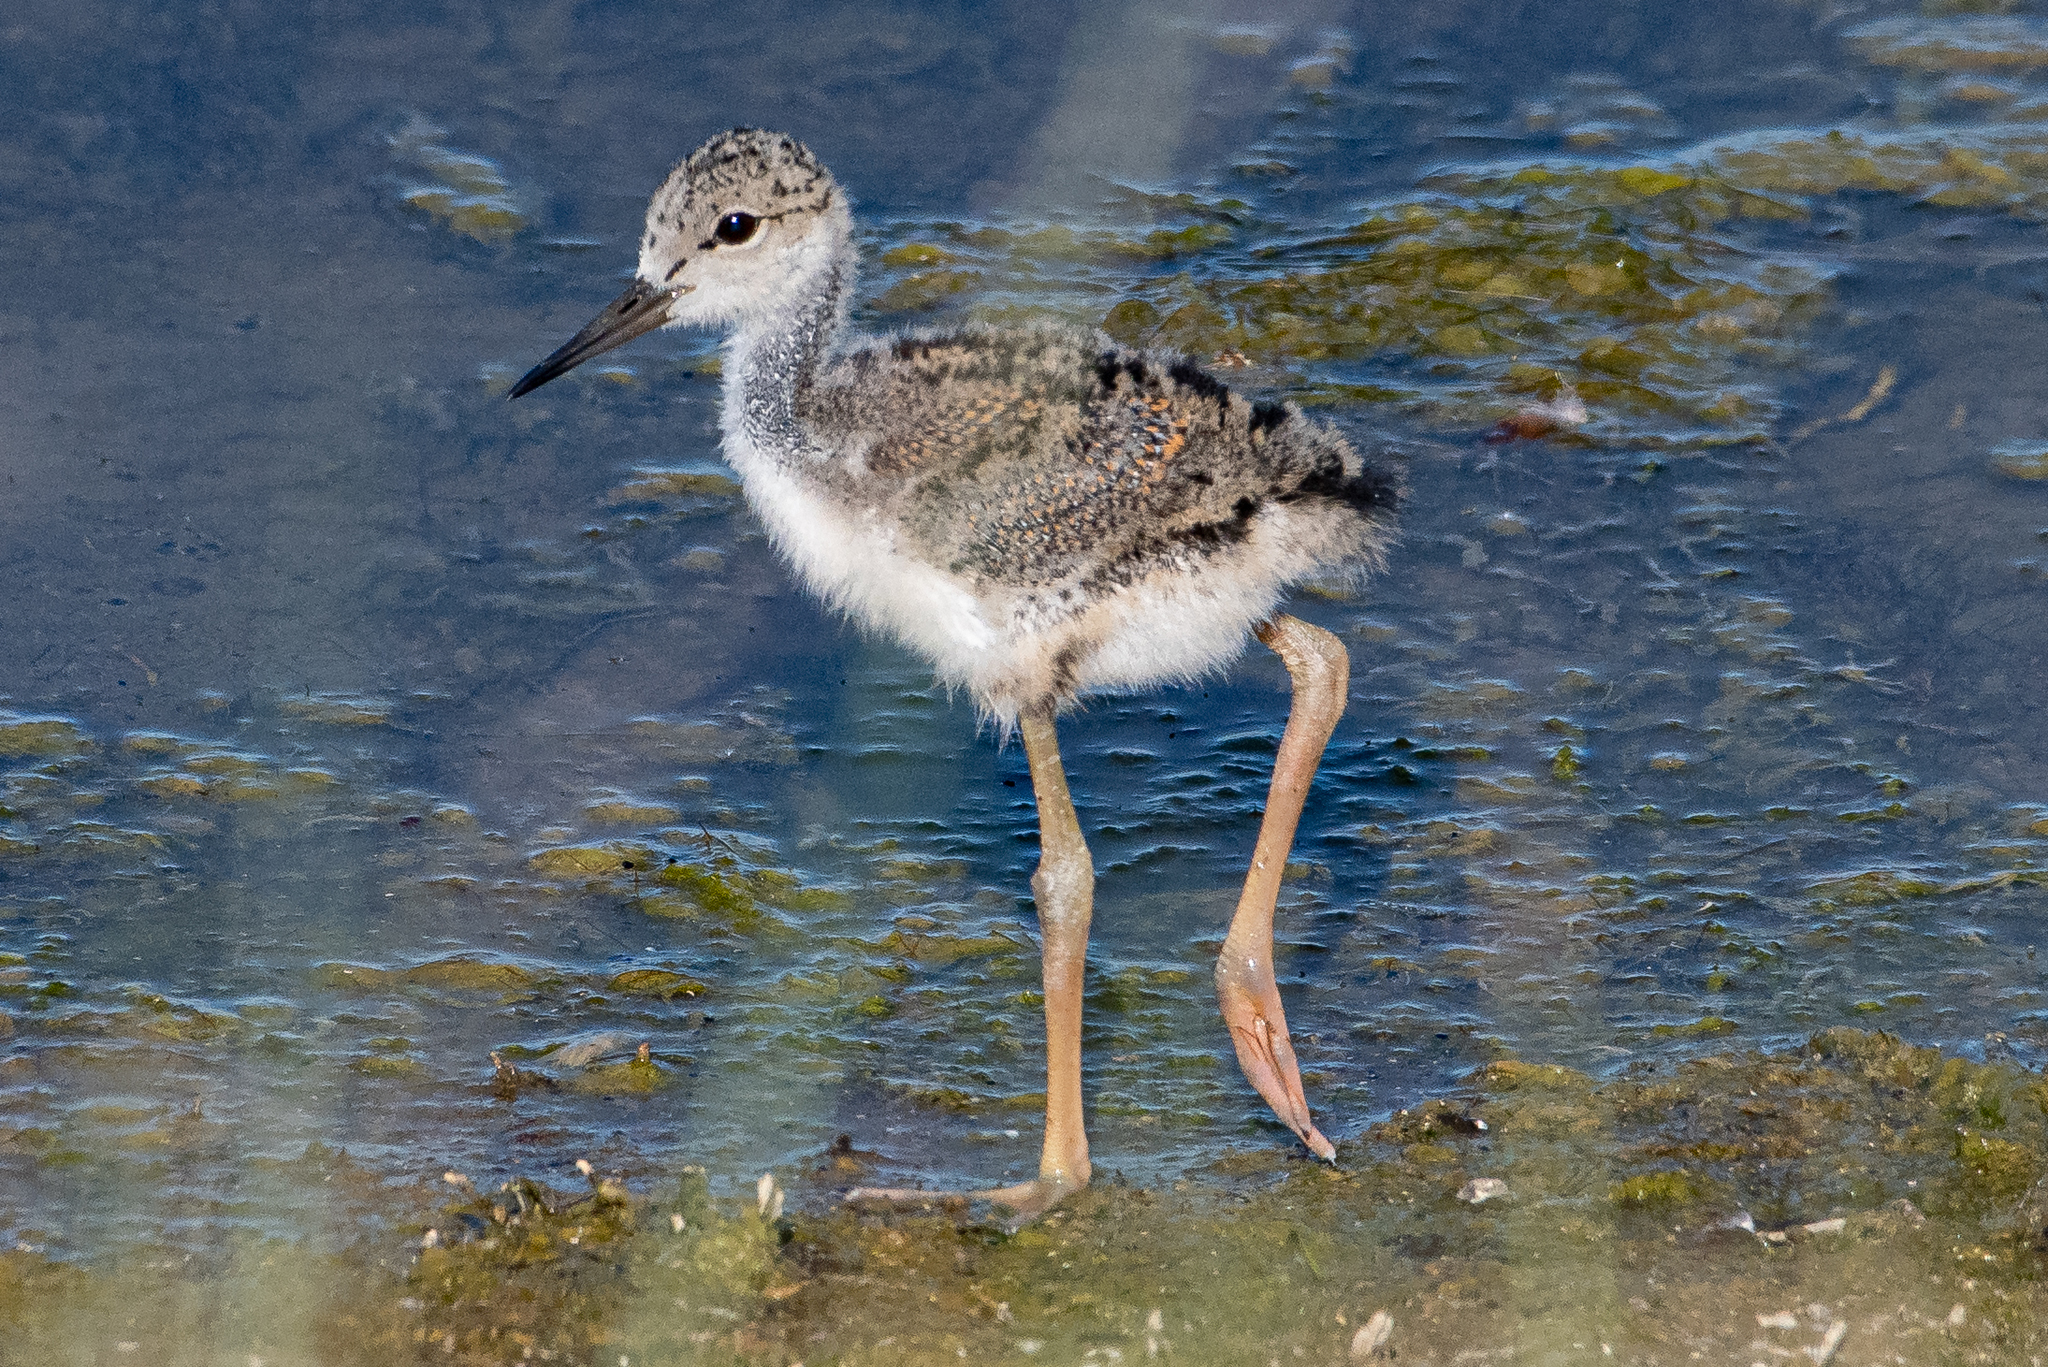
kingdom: Animalia
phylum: Chordata
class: Aves
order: Charadriiformes
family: Recurvirostridae
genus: Himantopus
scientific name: Himantopus mexicanus
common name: Black-necked stilt
